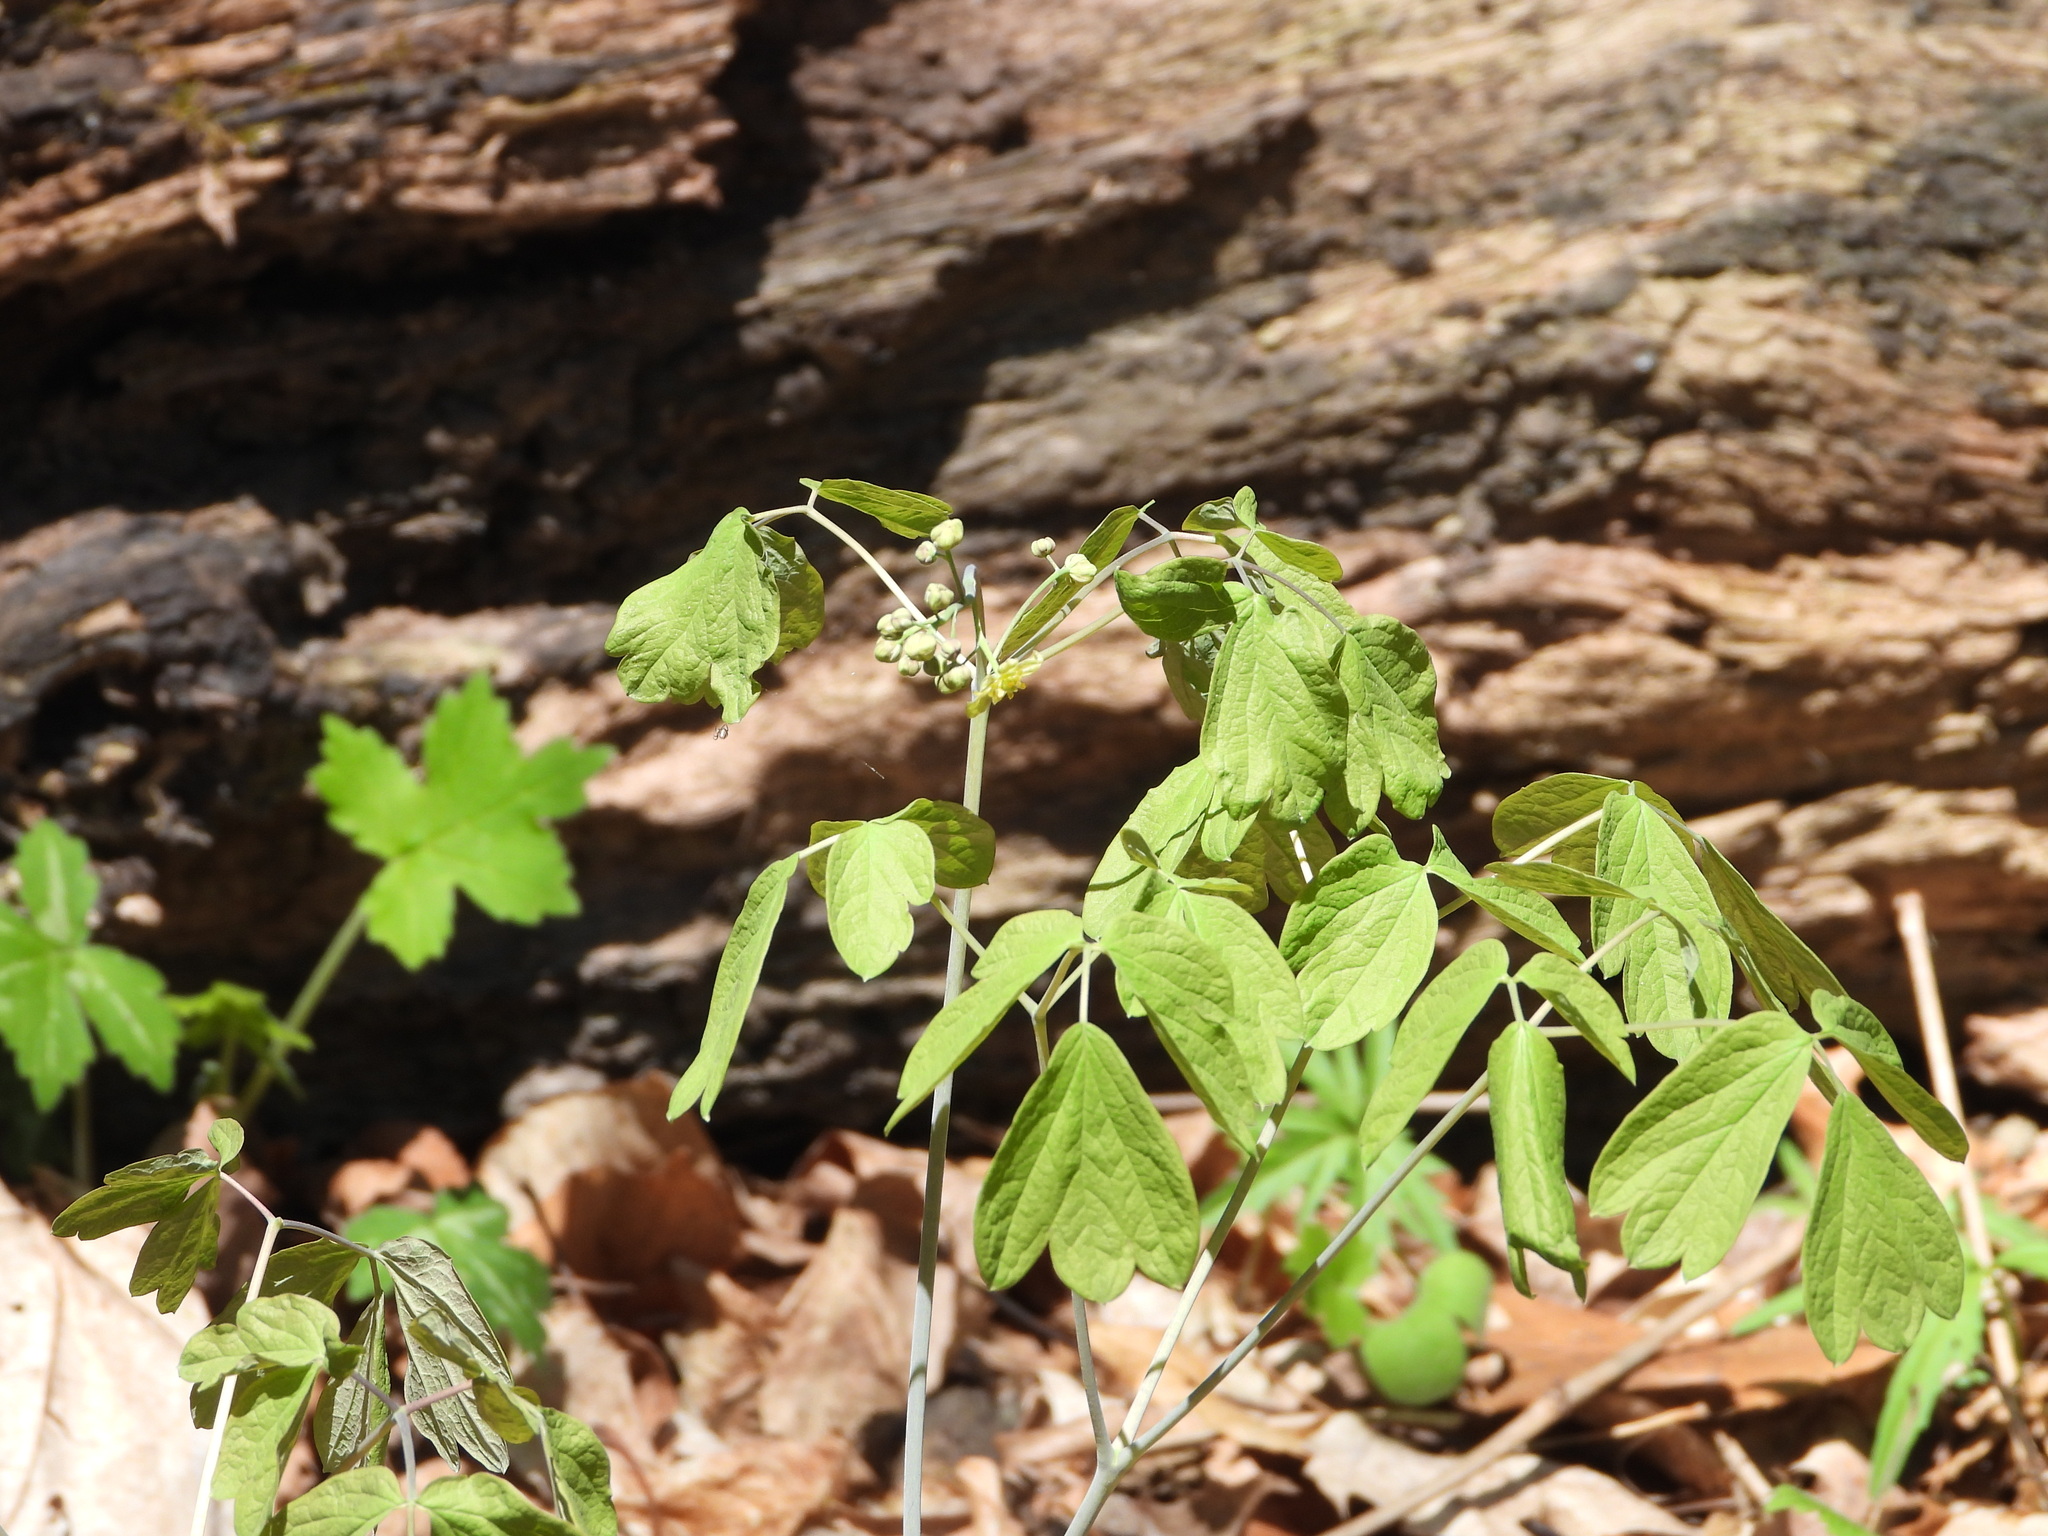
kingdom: Plantae
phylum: Tracheophyta
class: Magnoliopsida
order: Ranunculales
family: Berberidaceae
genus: Caulophyllum
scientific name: Caulophyllum thalictroides
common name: Blue cohosh
